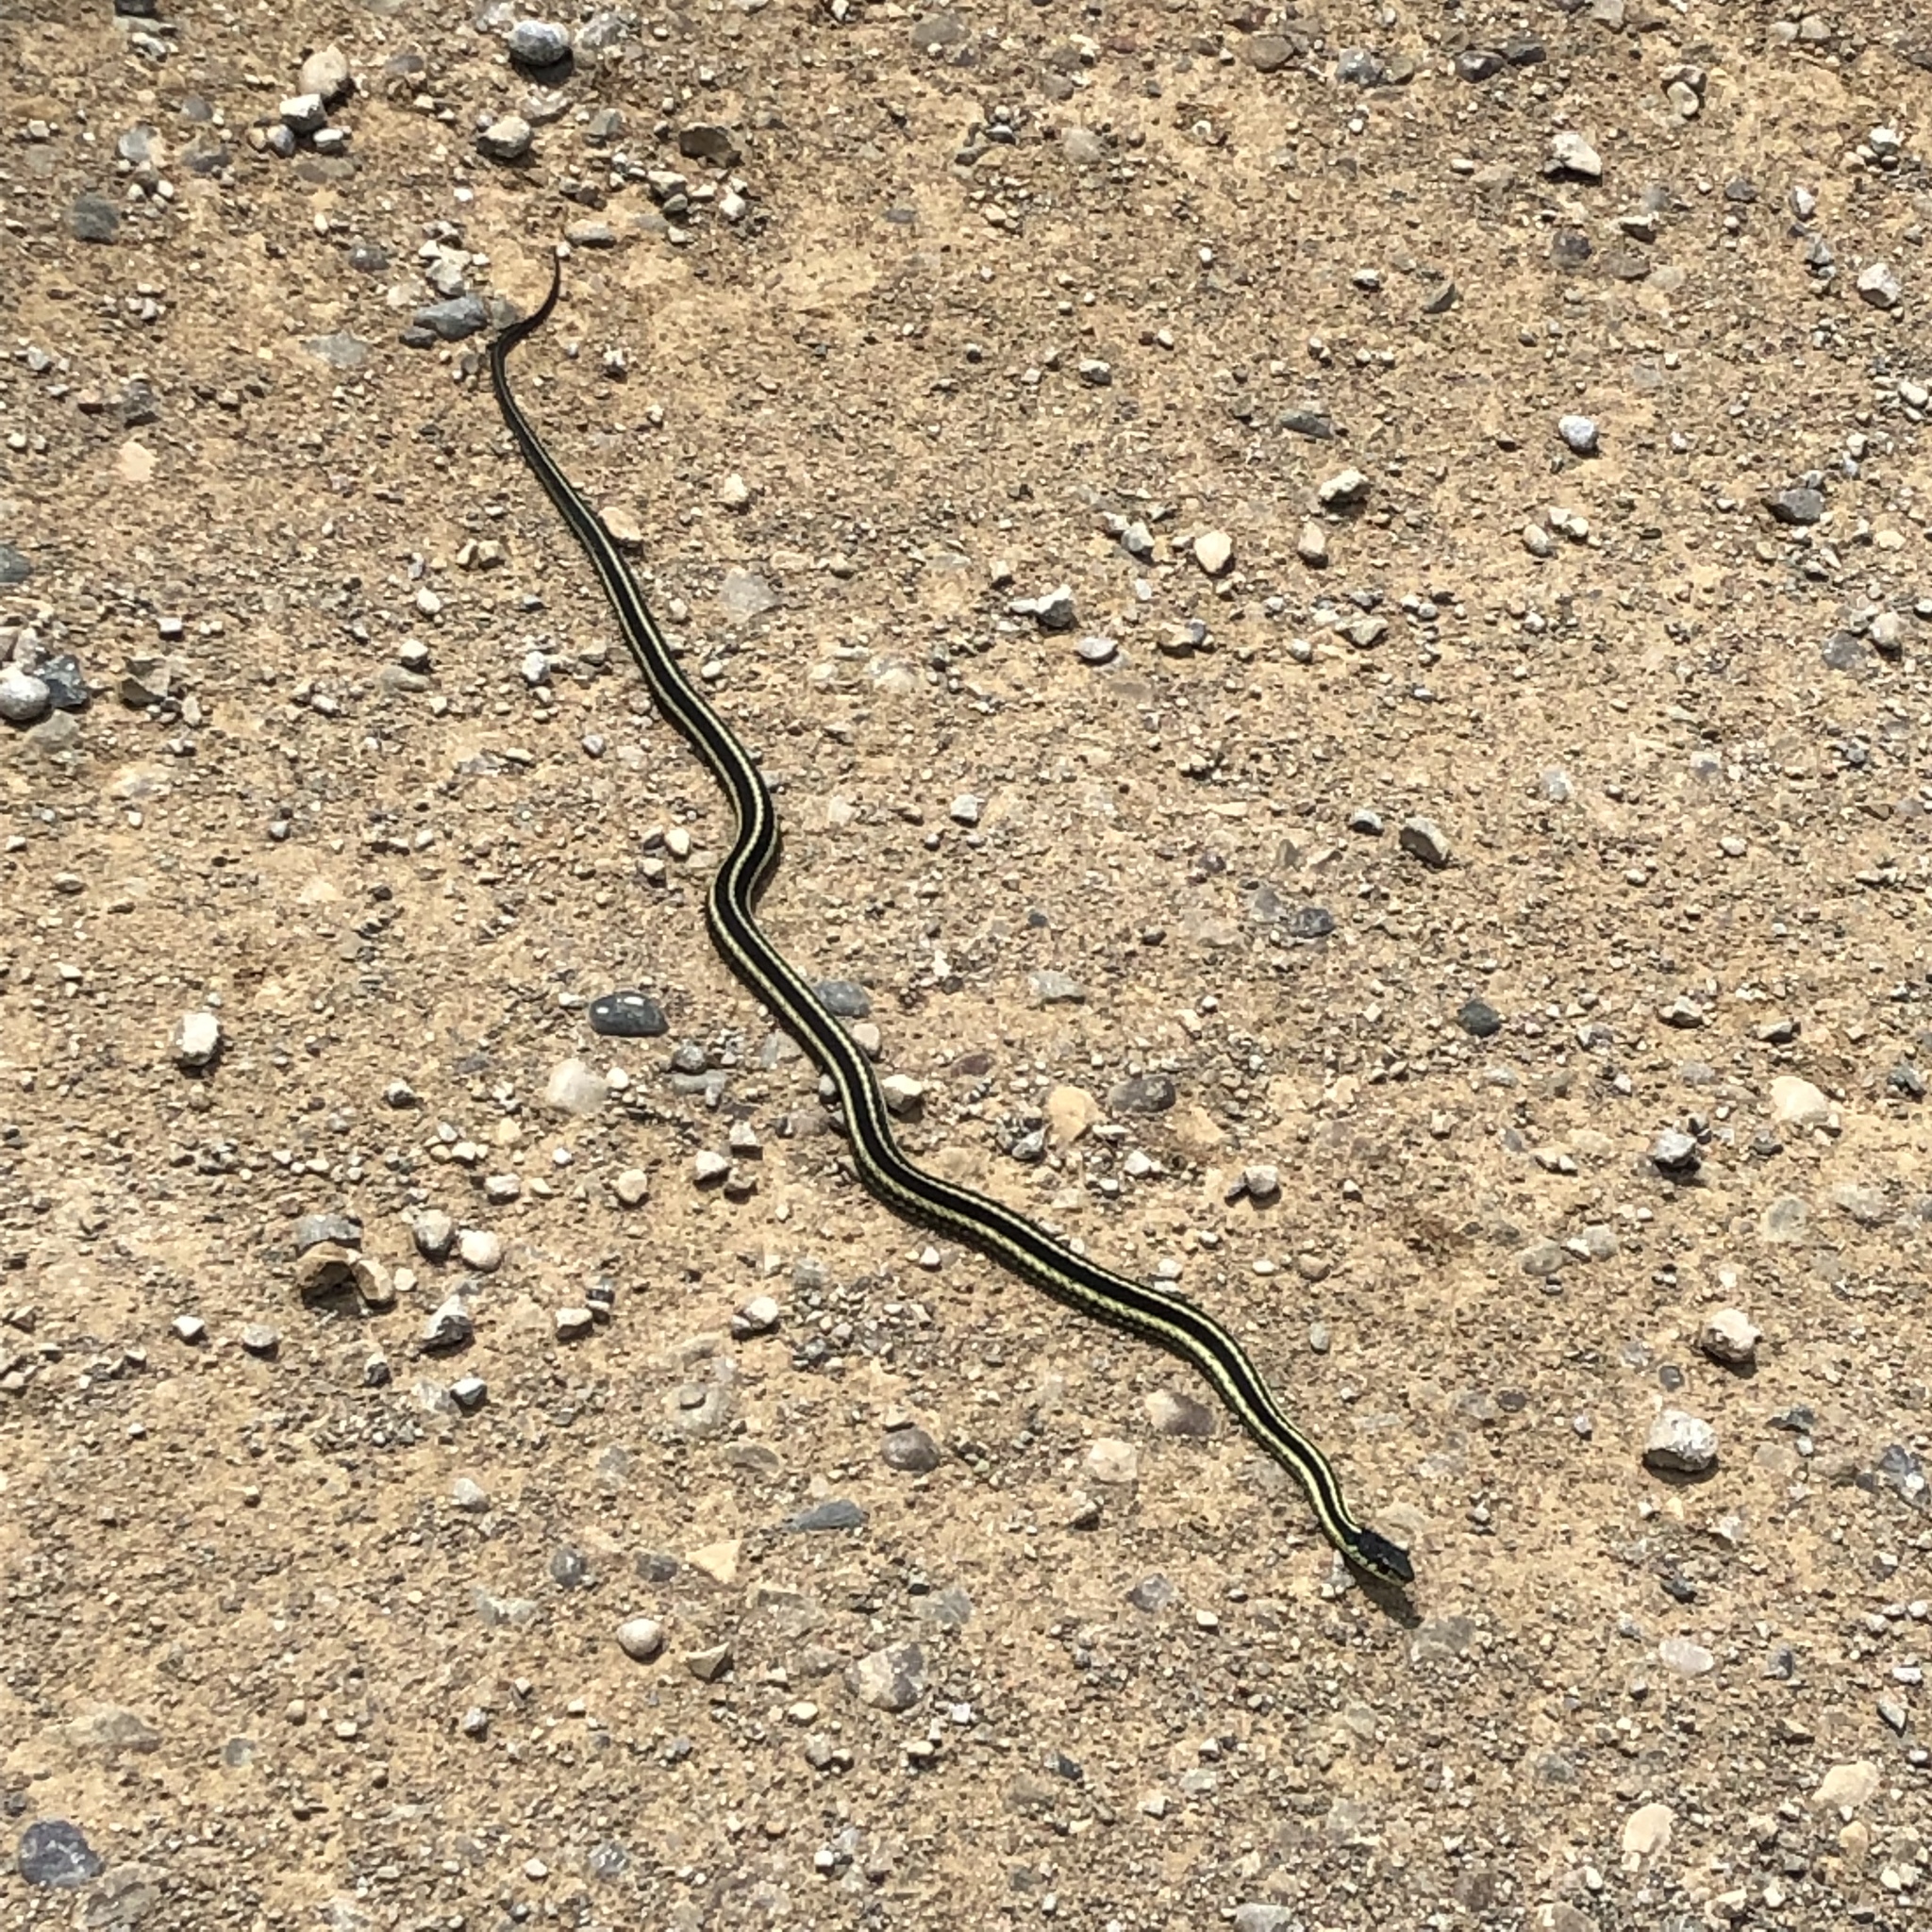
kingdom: Animalia
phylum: Chordata
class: Squamata
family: Colubridae
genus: Thamnophis
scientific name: Thamnophis sirtalis
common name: Common garter snake
